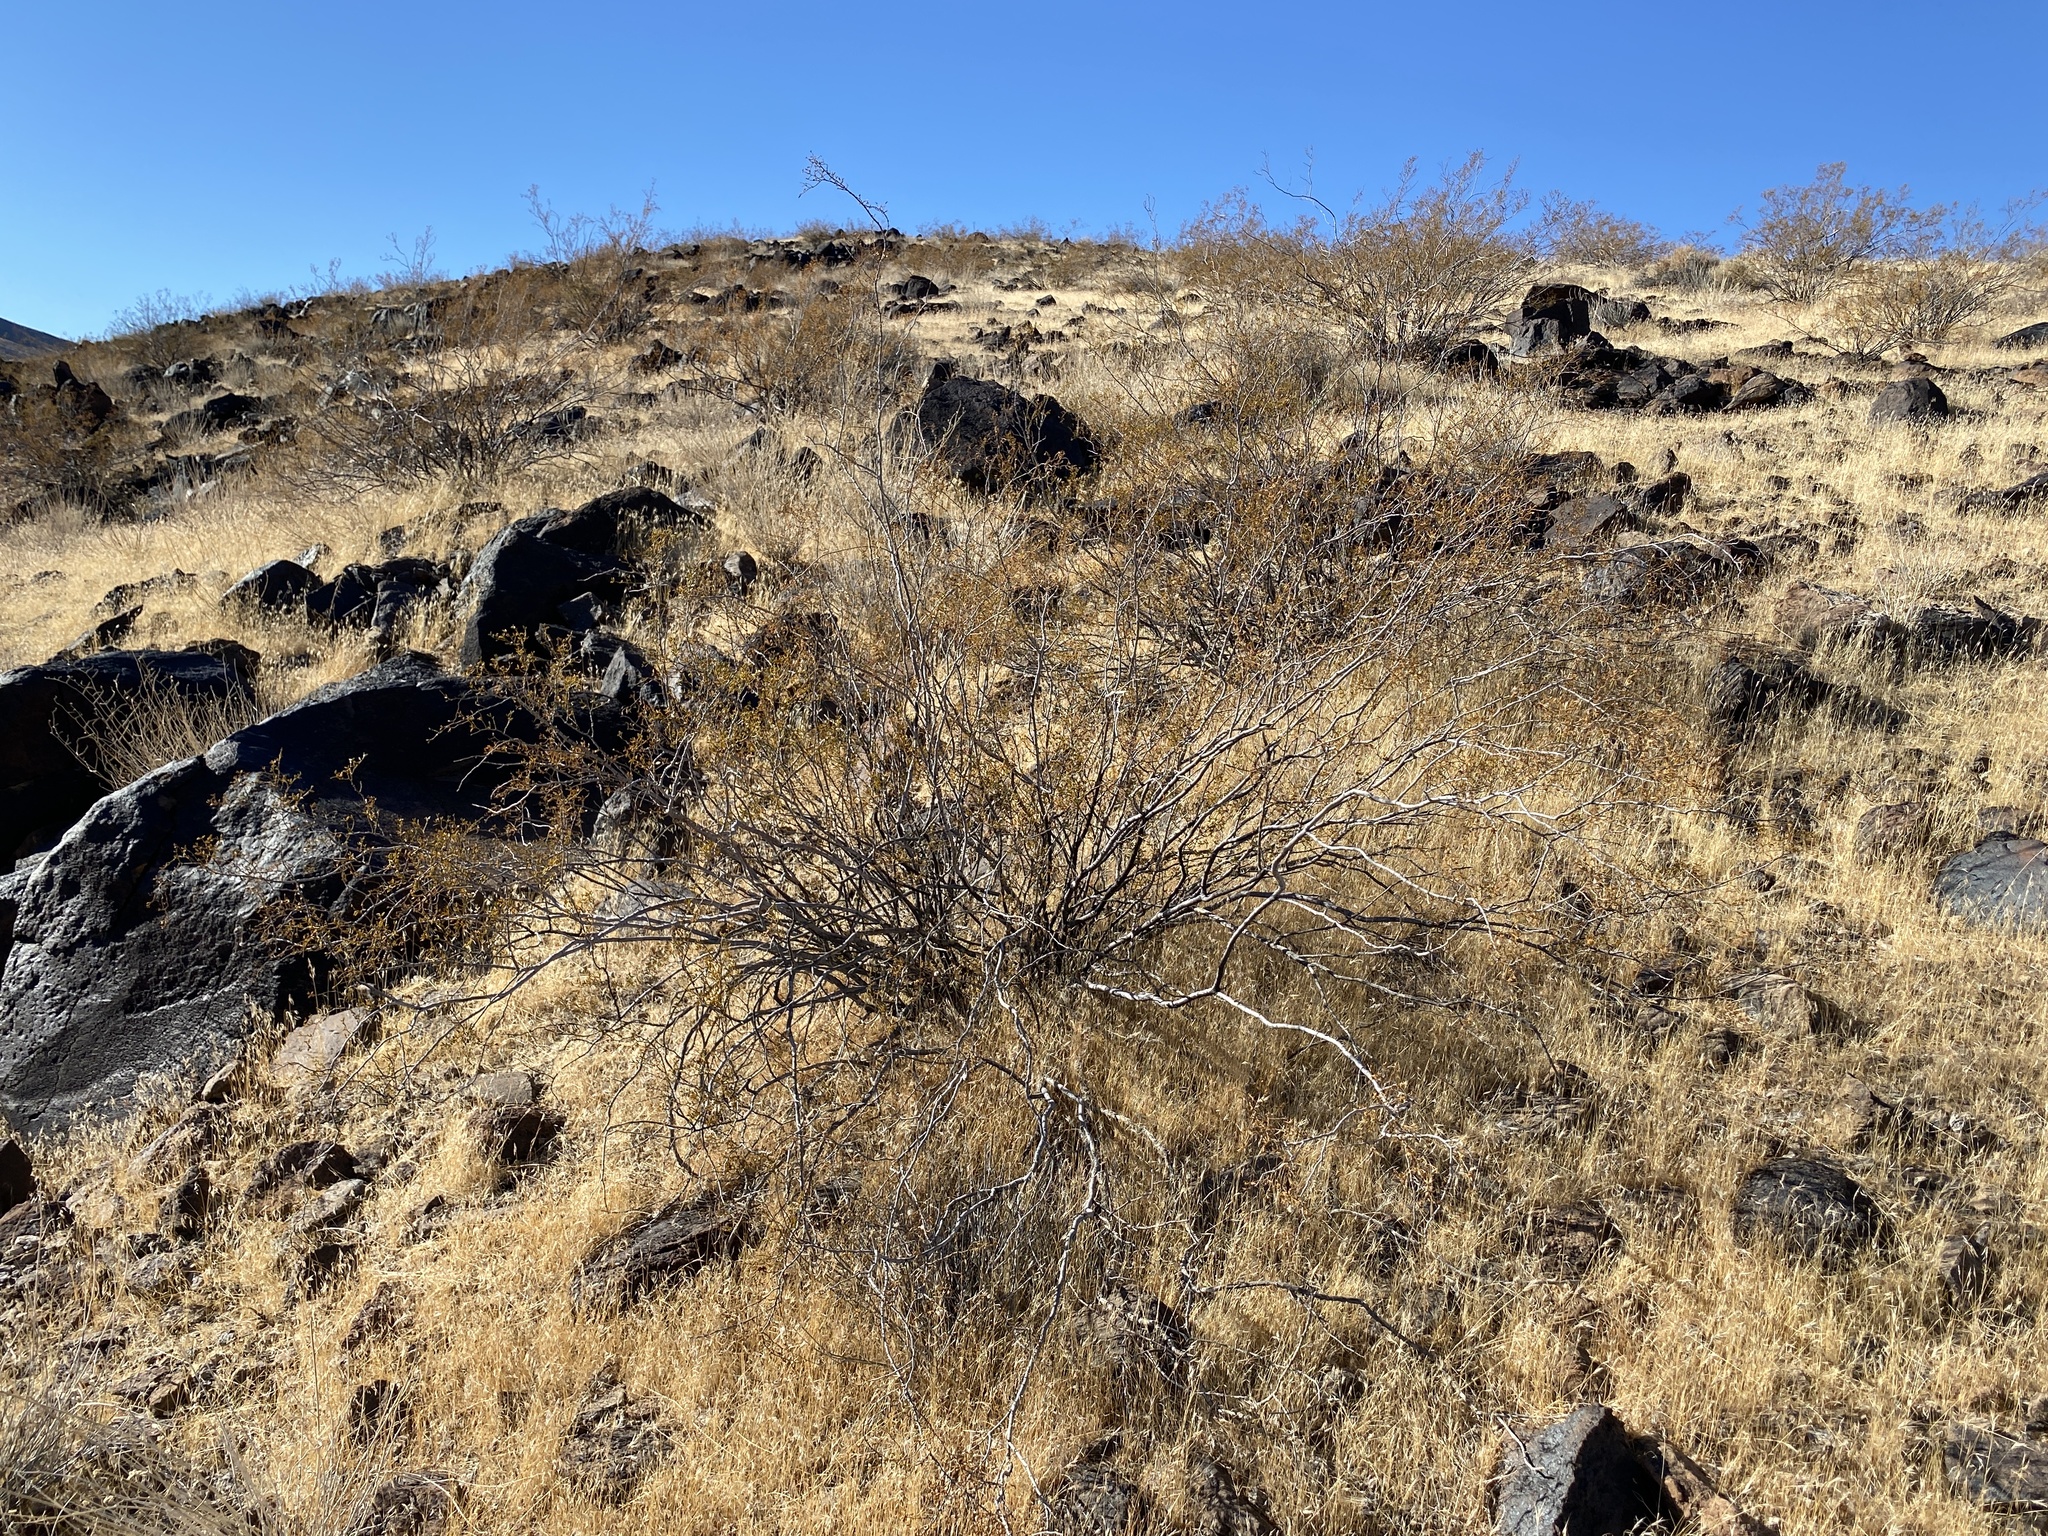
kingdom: Plantae
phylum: Tracheophyta
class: Magnoliopsida
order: Zygophyllales
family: Zygophyllaceae
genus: Larrea
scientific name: Larrea tridentata
